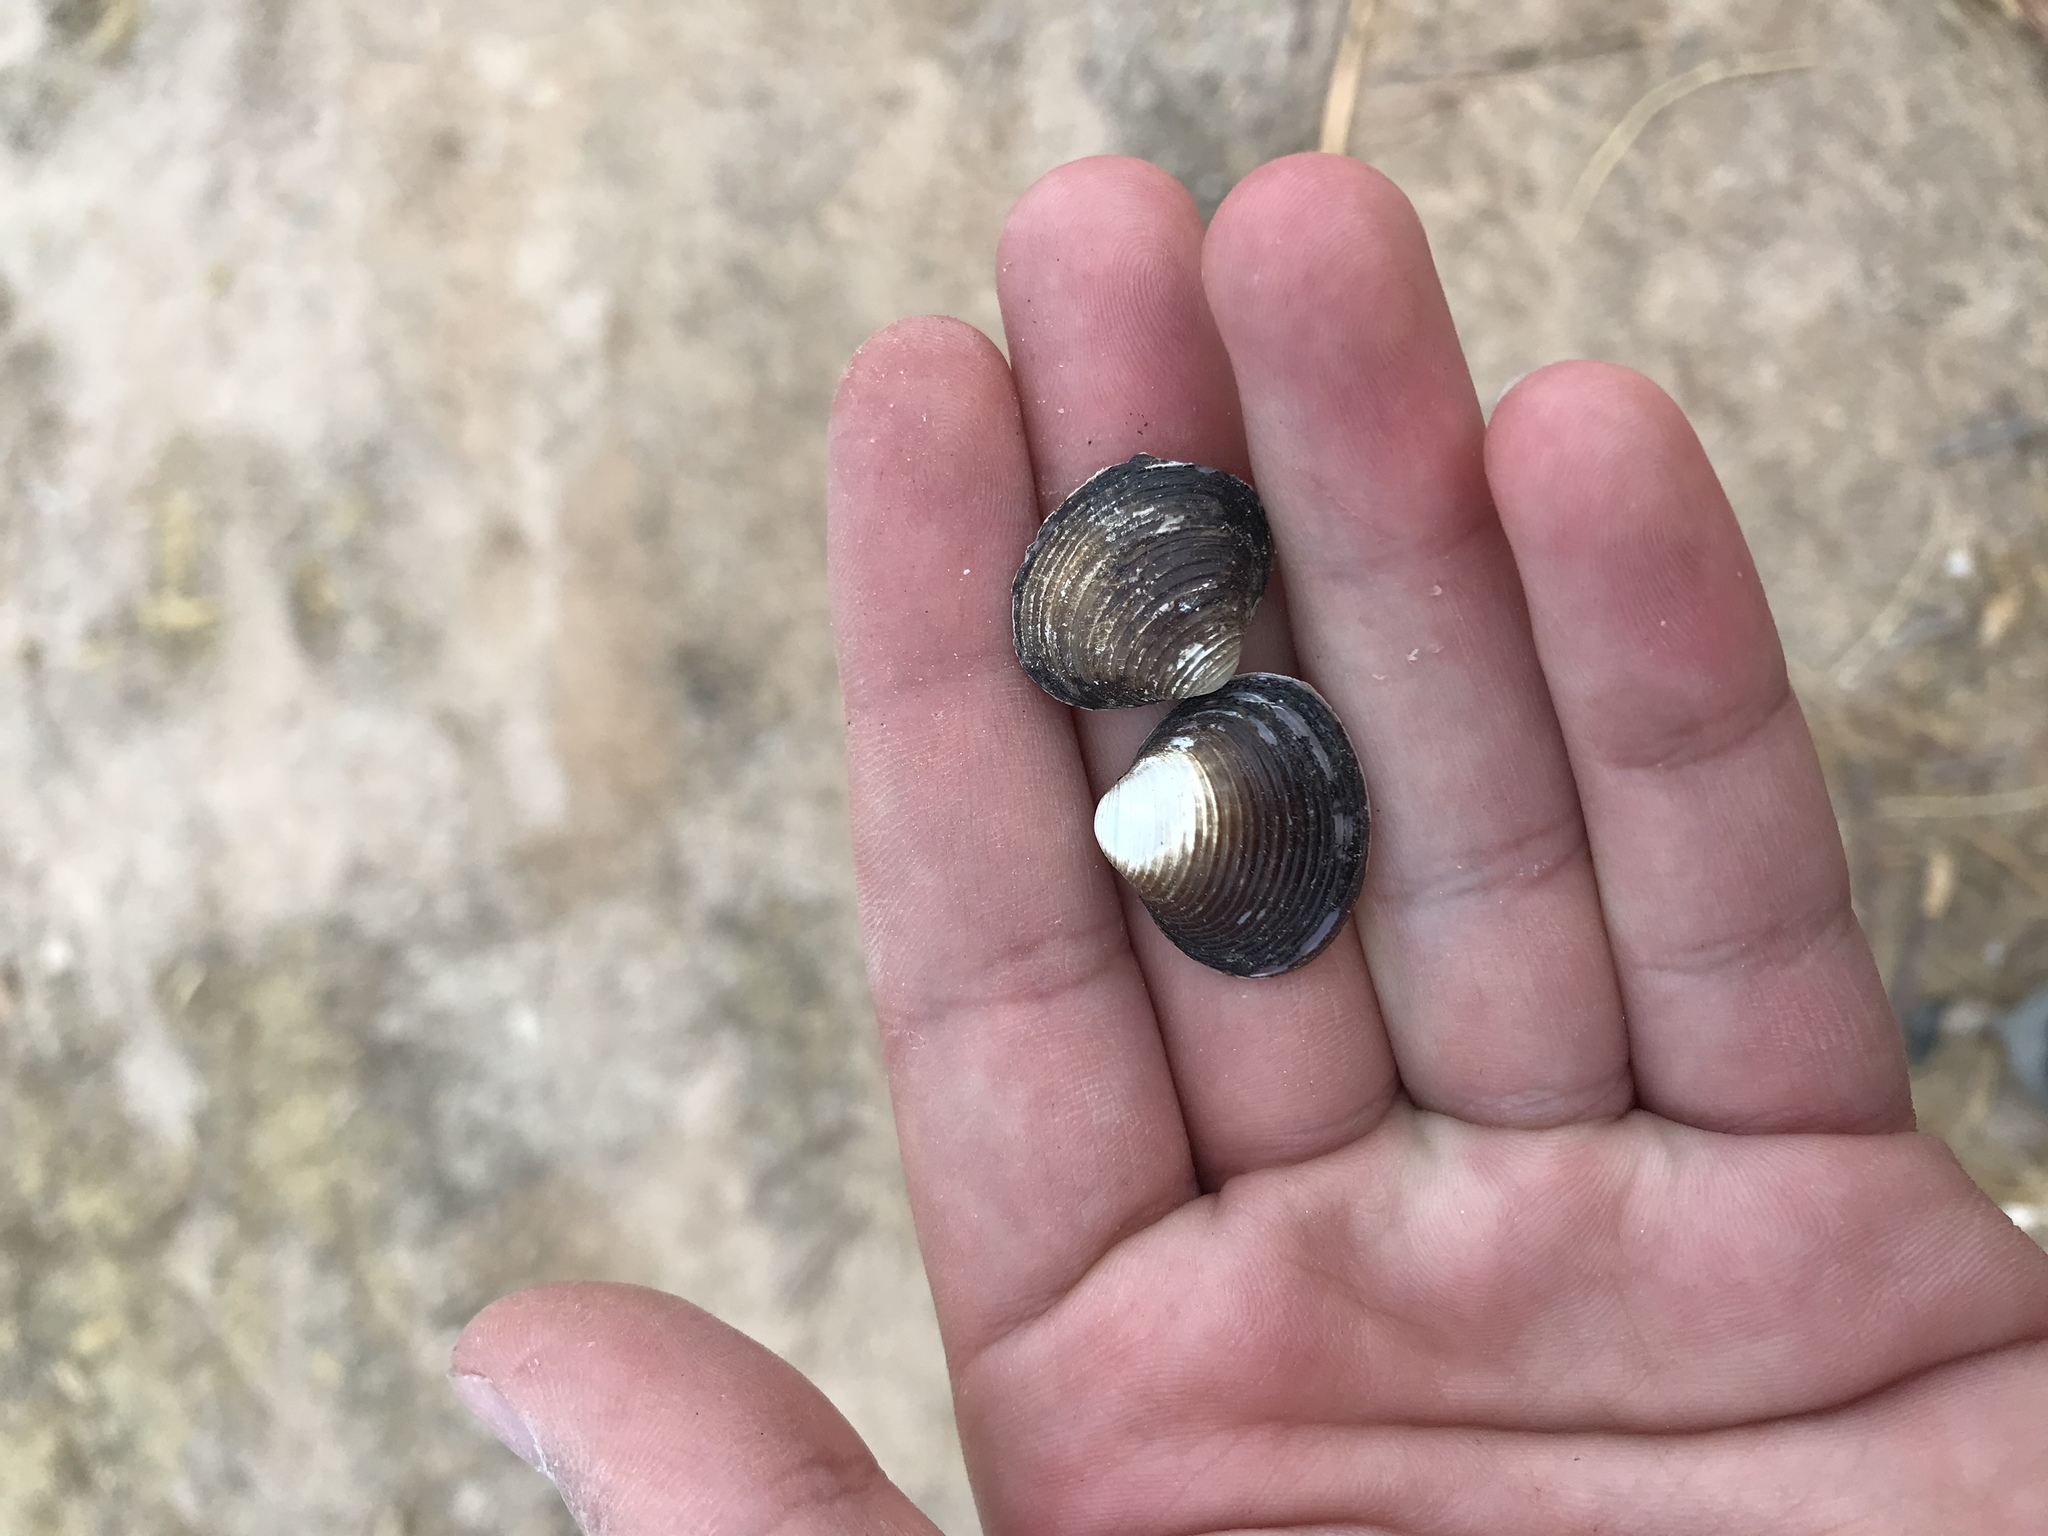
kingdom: Animalia
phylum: Mollusca
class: Bivalvia
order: Venerida
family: Cyrenidae
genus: Corbicula
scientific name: Corbicula fluminea
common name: Asian clam
